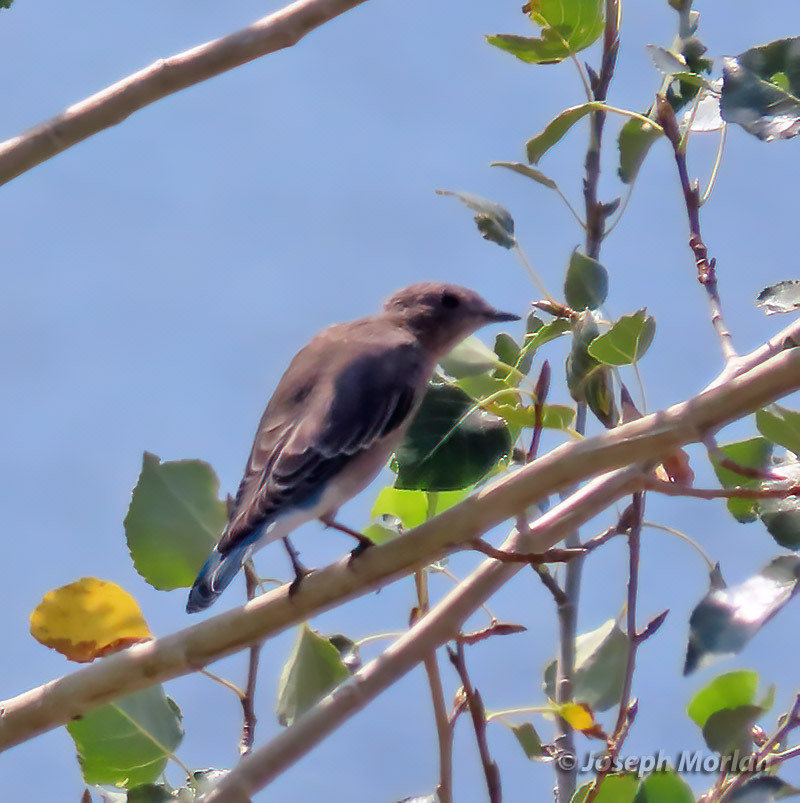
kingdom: Animalia
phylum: Chordata
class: Aves
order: Passeriformes
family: Turdidae
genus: Sialia
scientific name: Sialia mexicana
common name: Western bluebird
